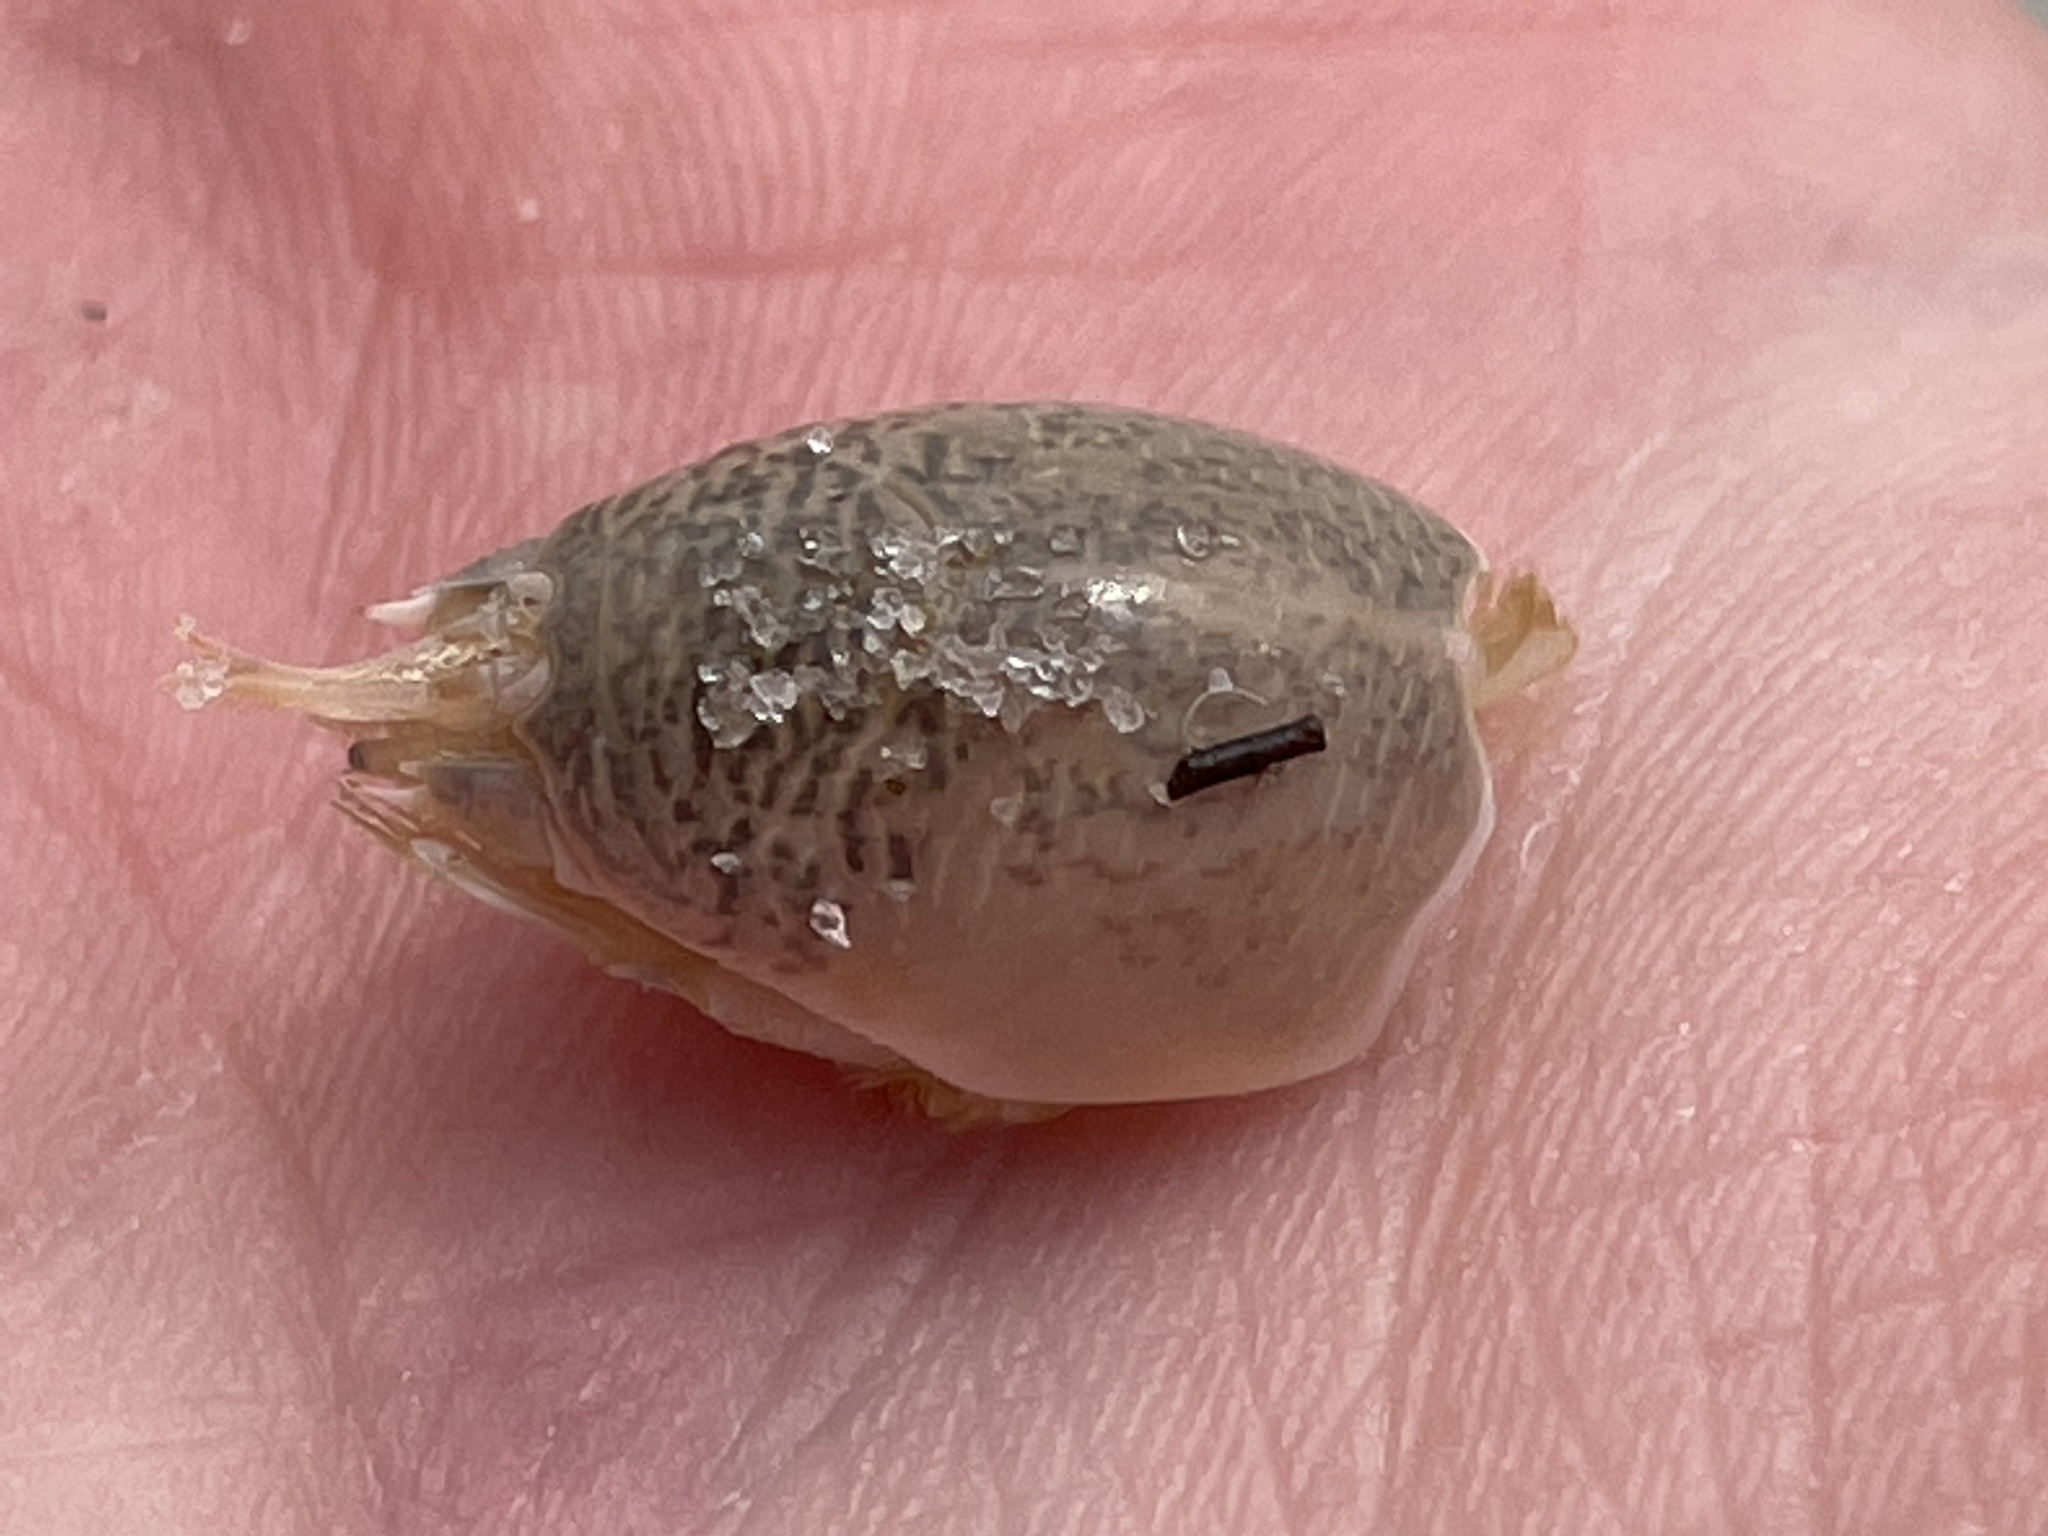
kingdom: Animalia
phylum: Arthropoda
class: Malacostraca
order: Decapoda
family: Hippidae
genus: Emerita
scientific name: Emerita talpoida
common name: Atlantic sand crab
